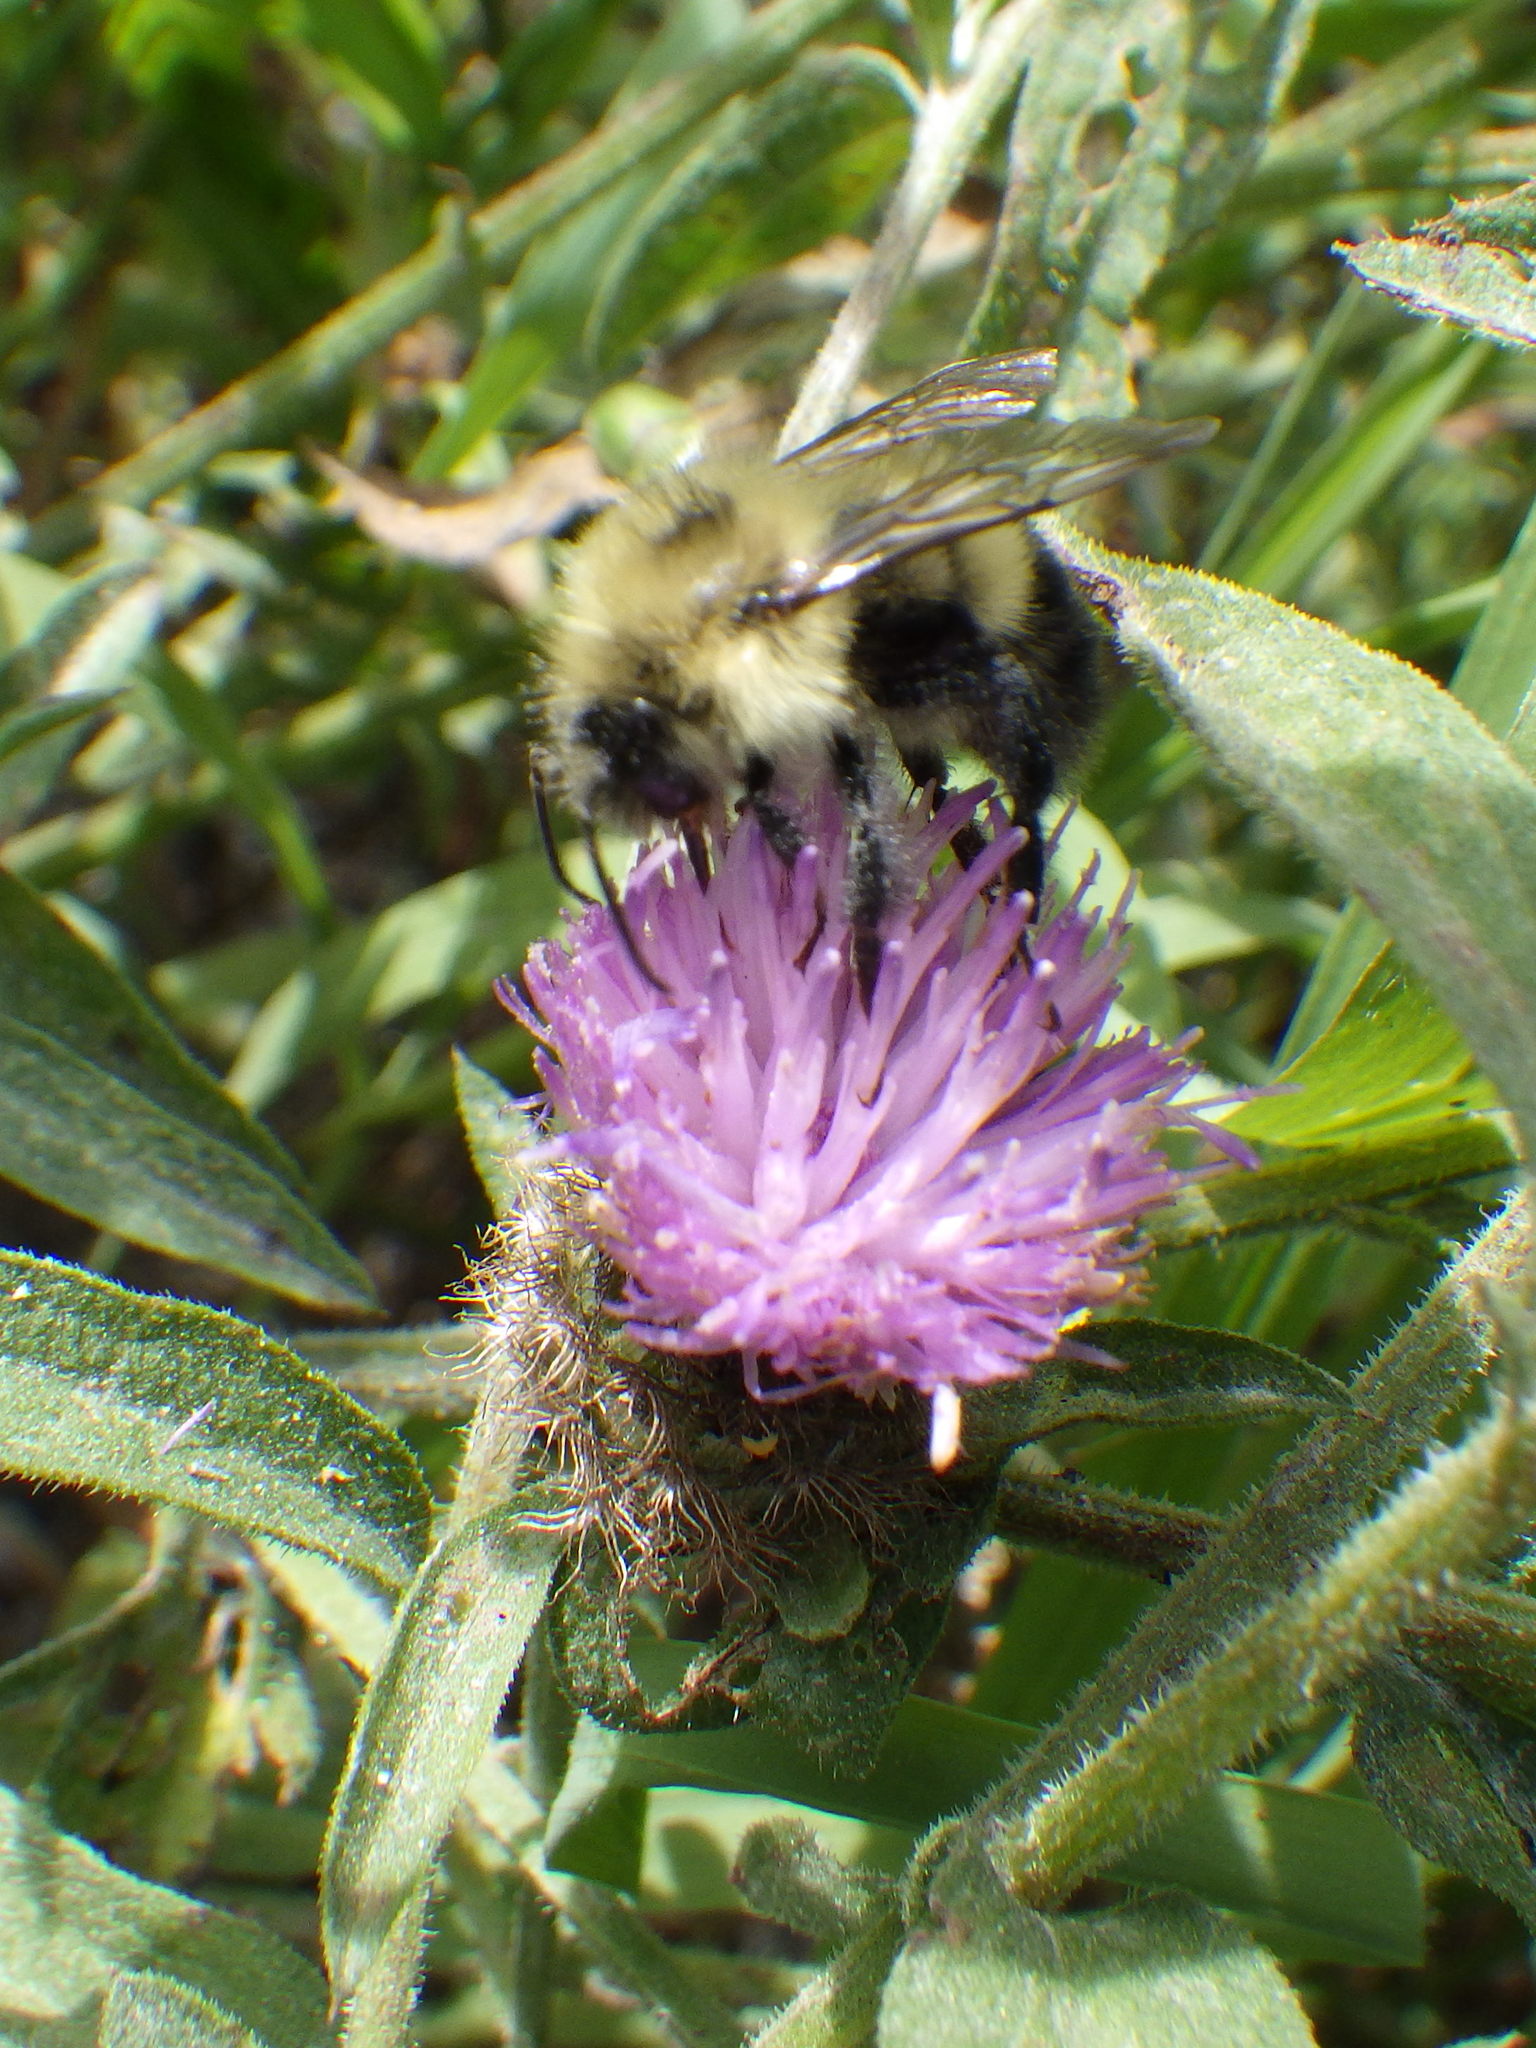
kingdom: Animalia
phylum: Arthropoda
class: Insecta
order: Hymenoptera
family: Apidae
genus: Pyrobombus
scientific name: Pyrobombus
